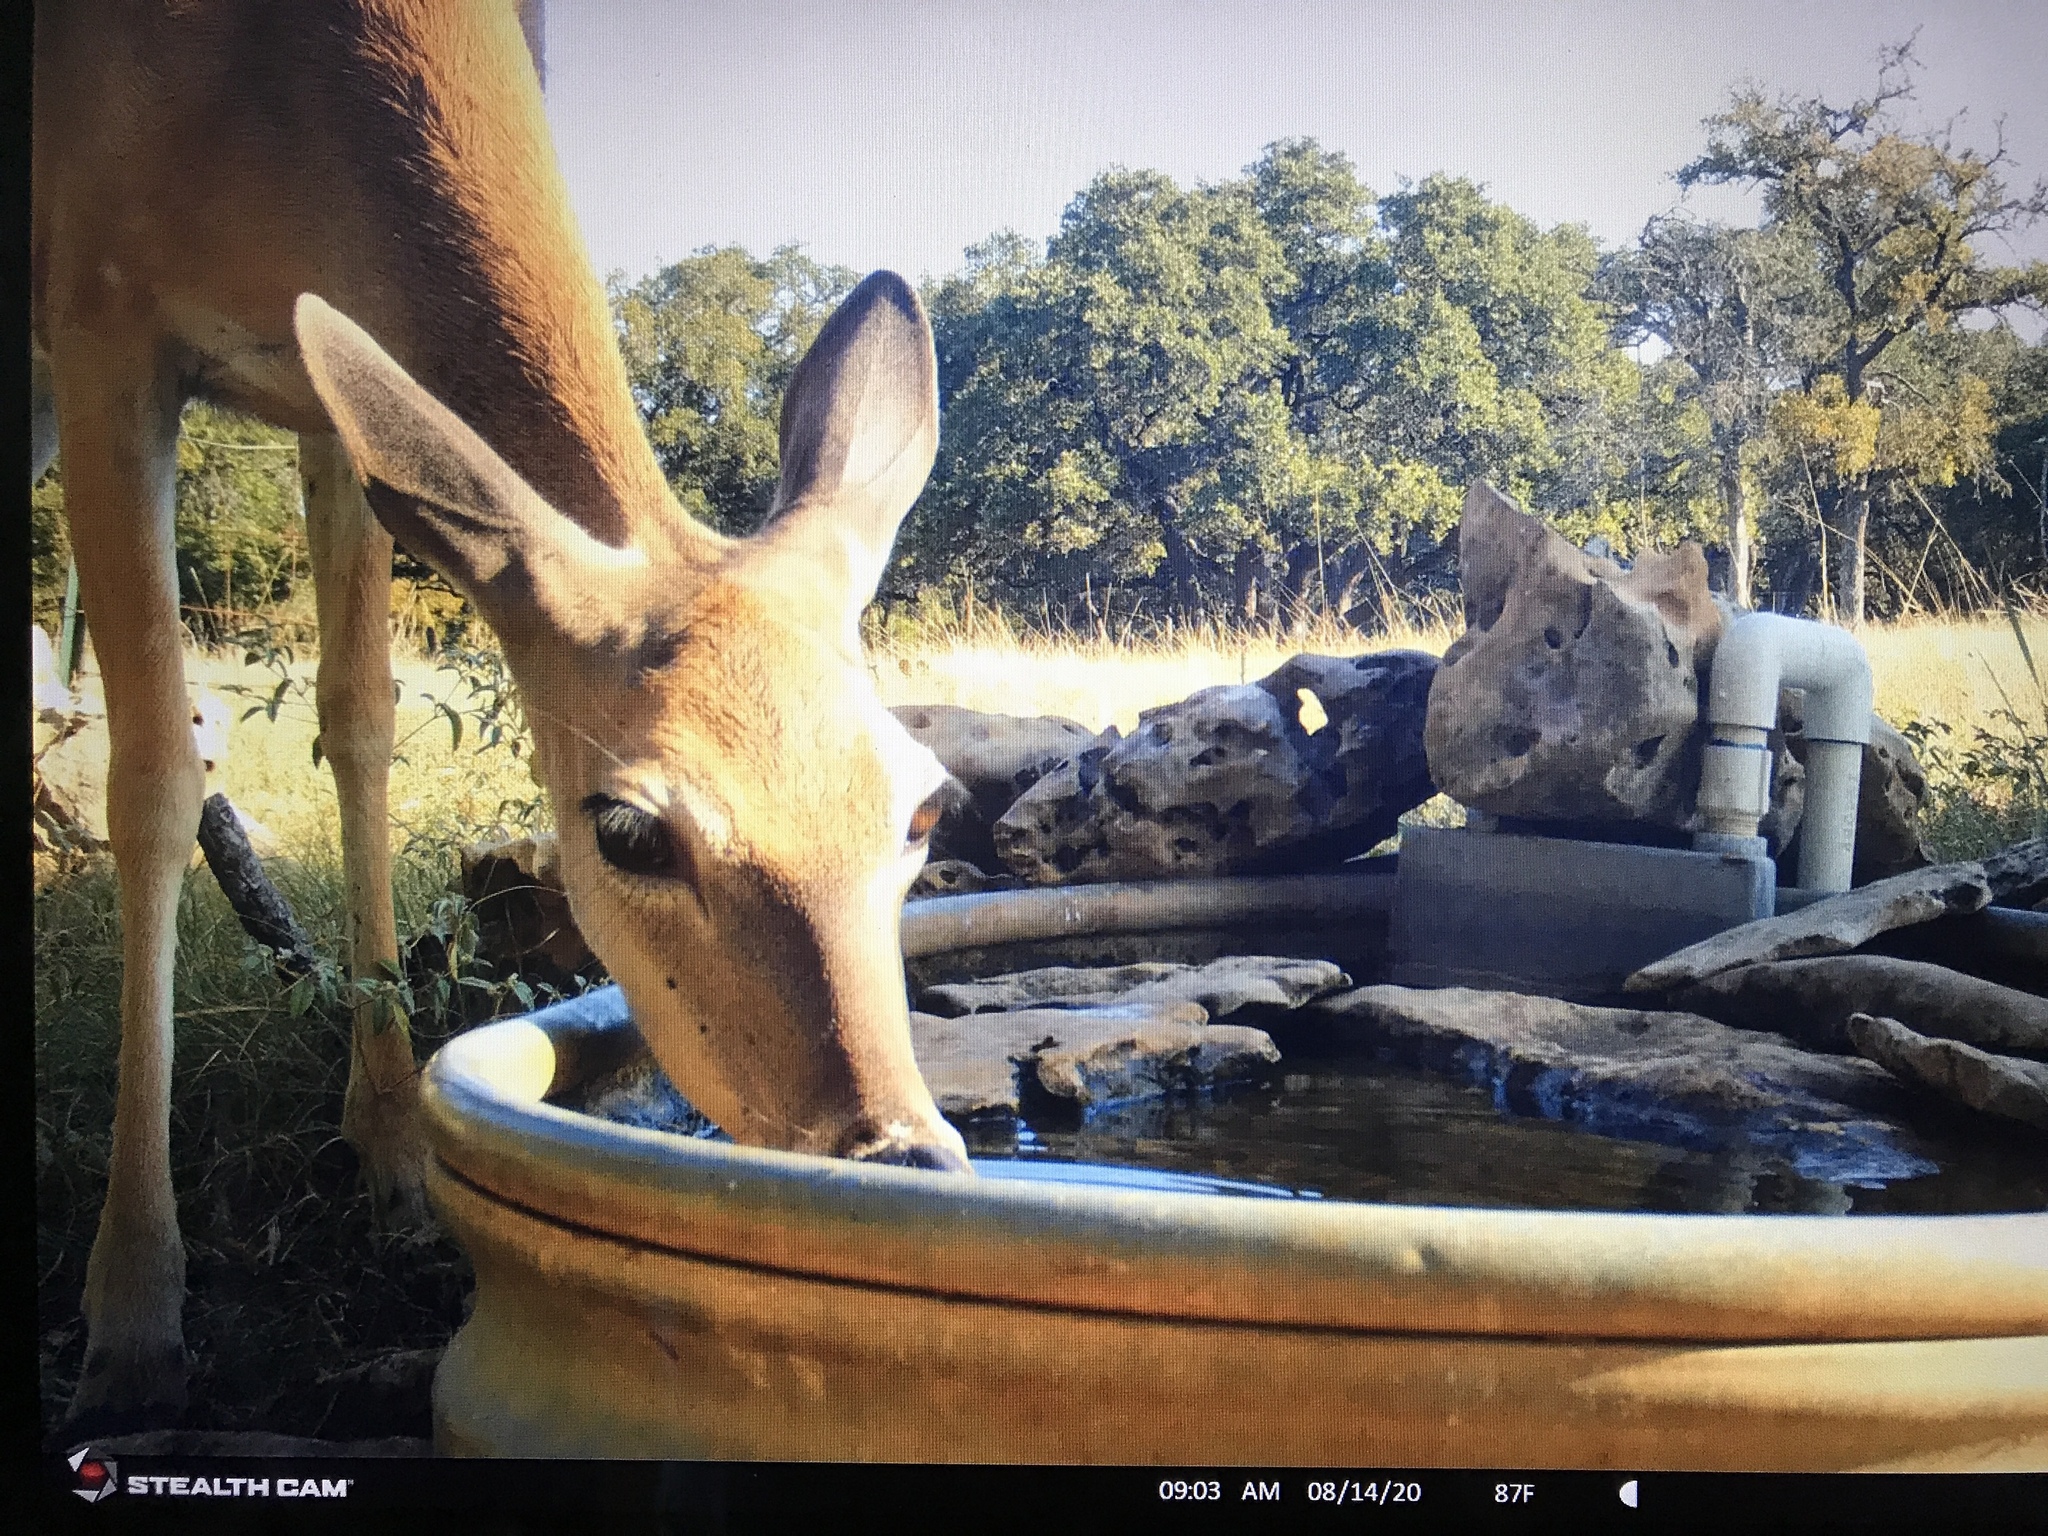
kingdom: Animalia
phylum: Chordata
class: Mammalia
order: Artiodactyla
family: Cervidae
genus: Odocoileus
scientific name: Odocoileus virginianus
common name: White-tailed deer
